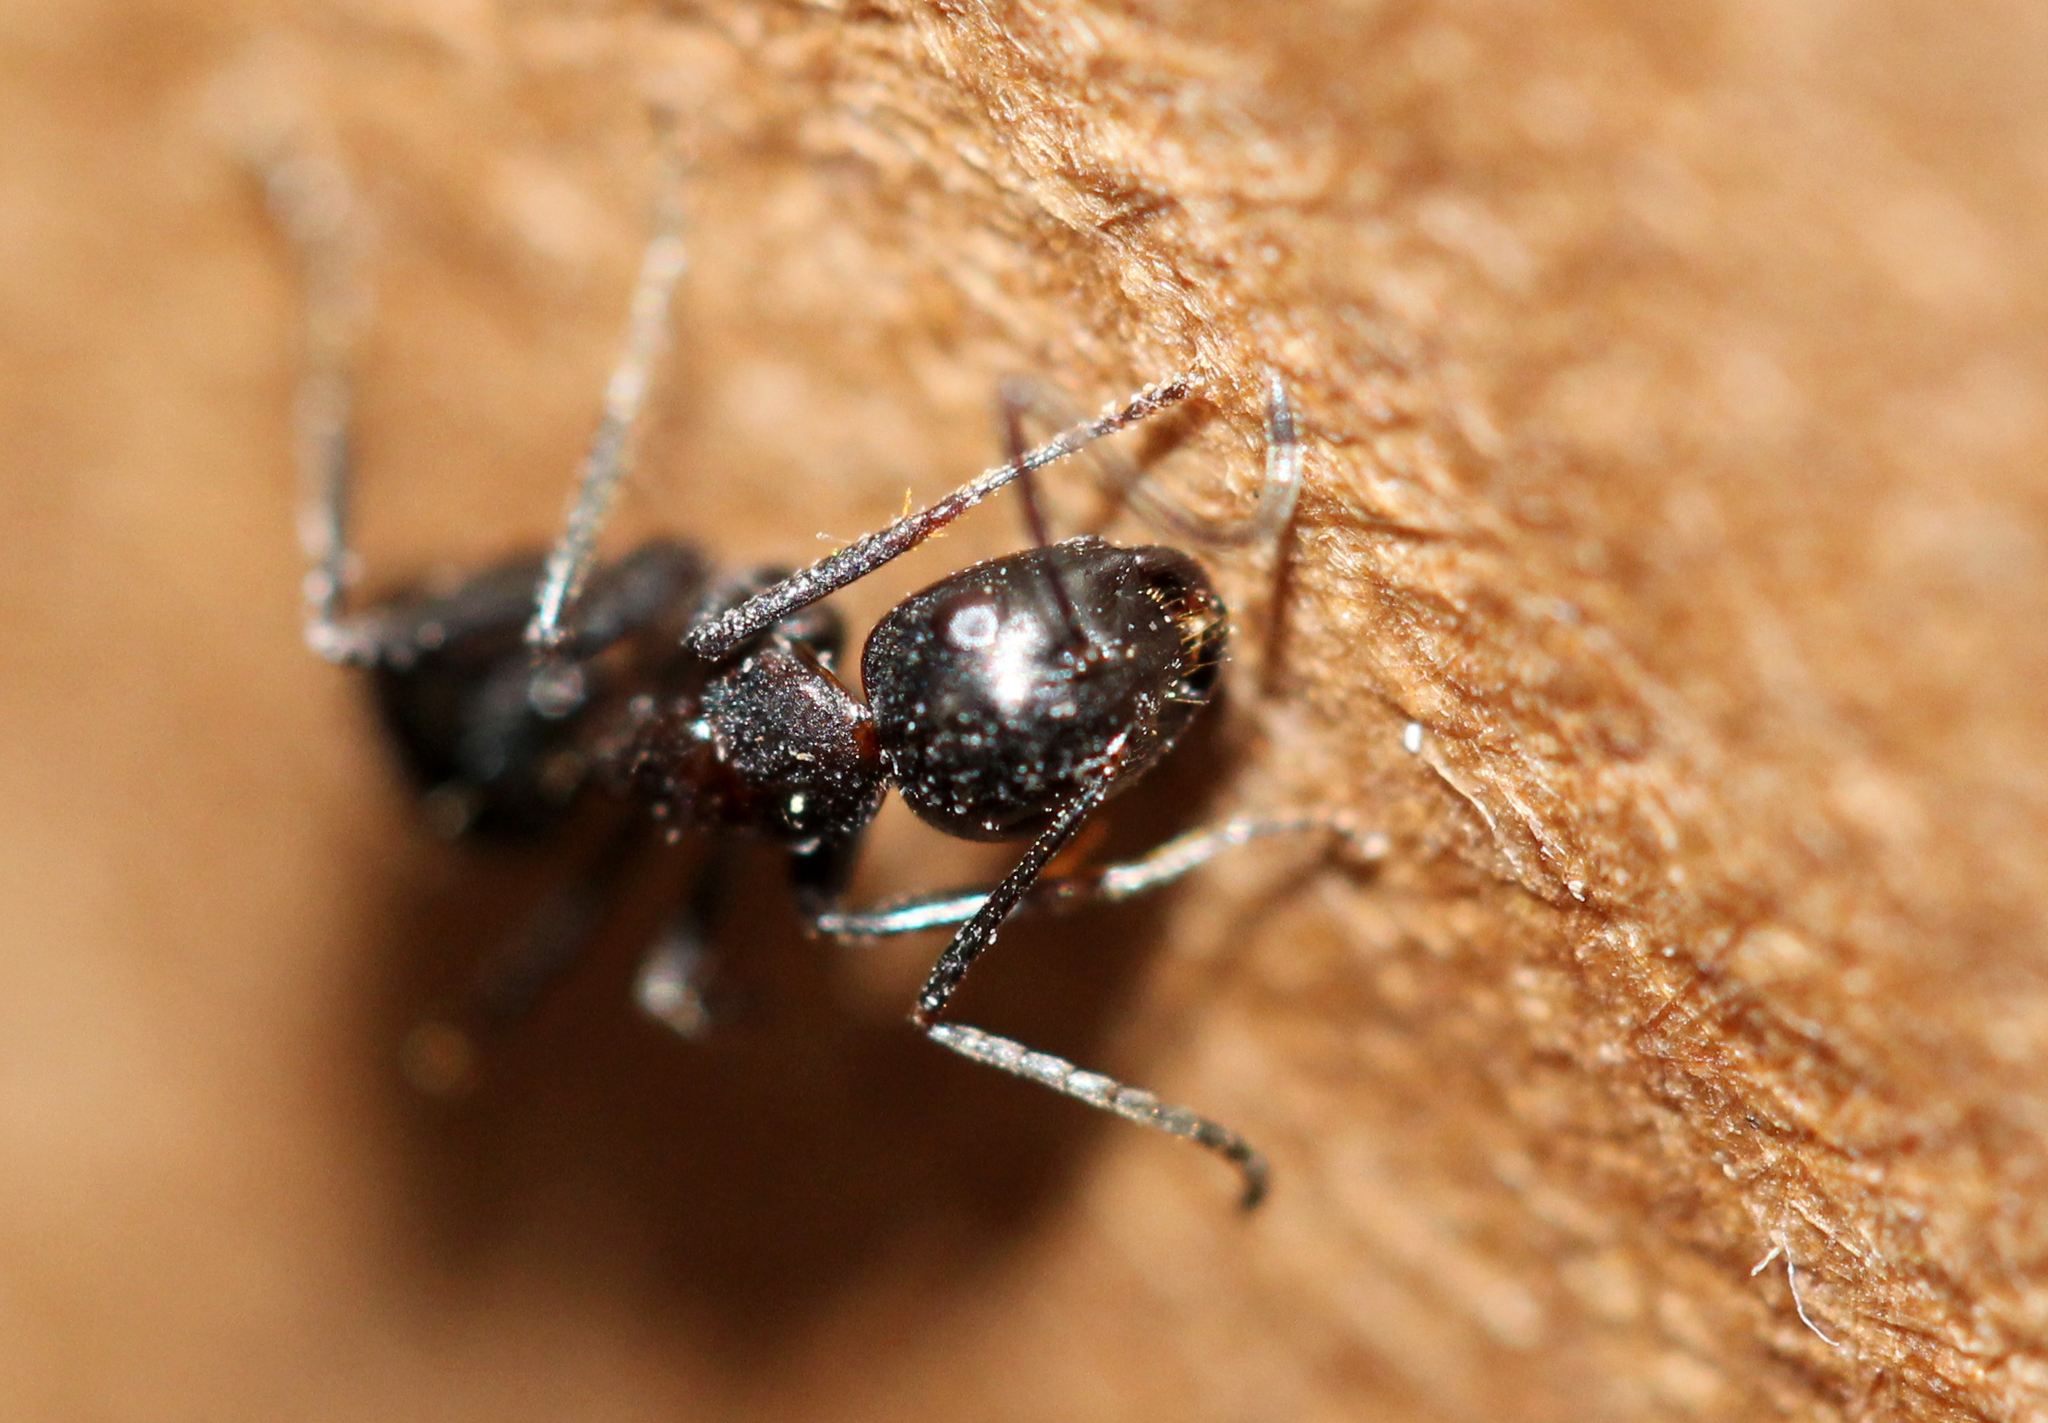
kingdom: Animalia
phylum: Arthropoda
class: Insecta
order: Hymenoptera
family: Formicidae
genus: Camponotus
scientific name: Camponotus nearcticus
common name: Smaller carpenter ant
